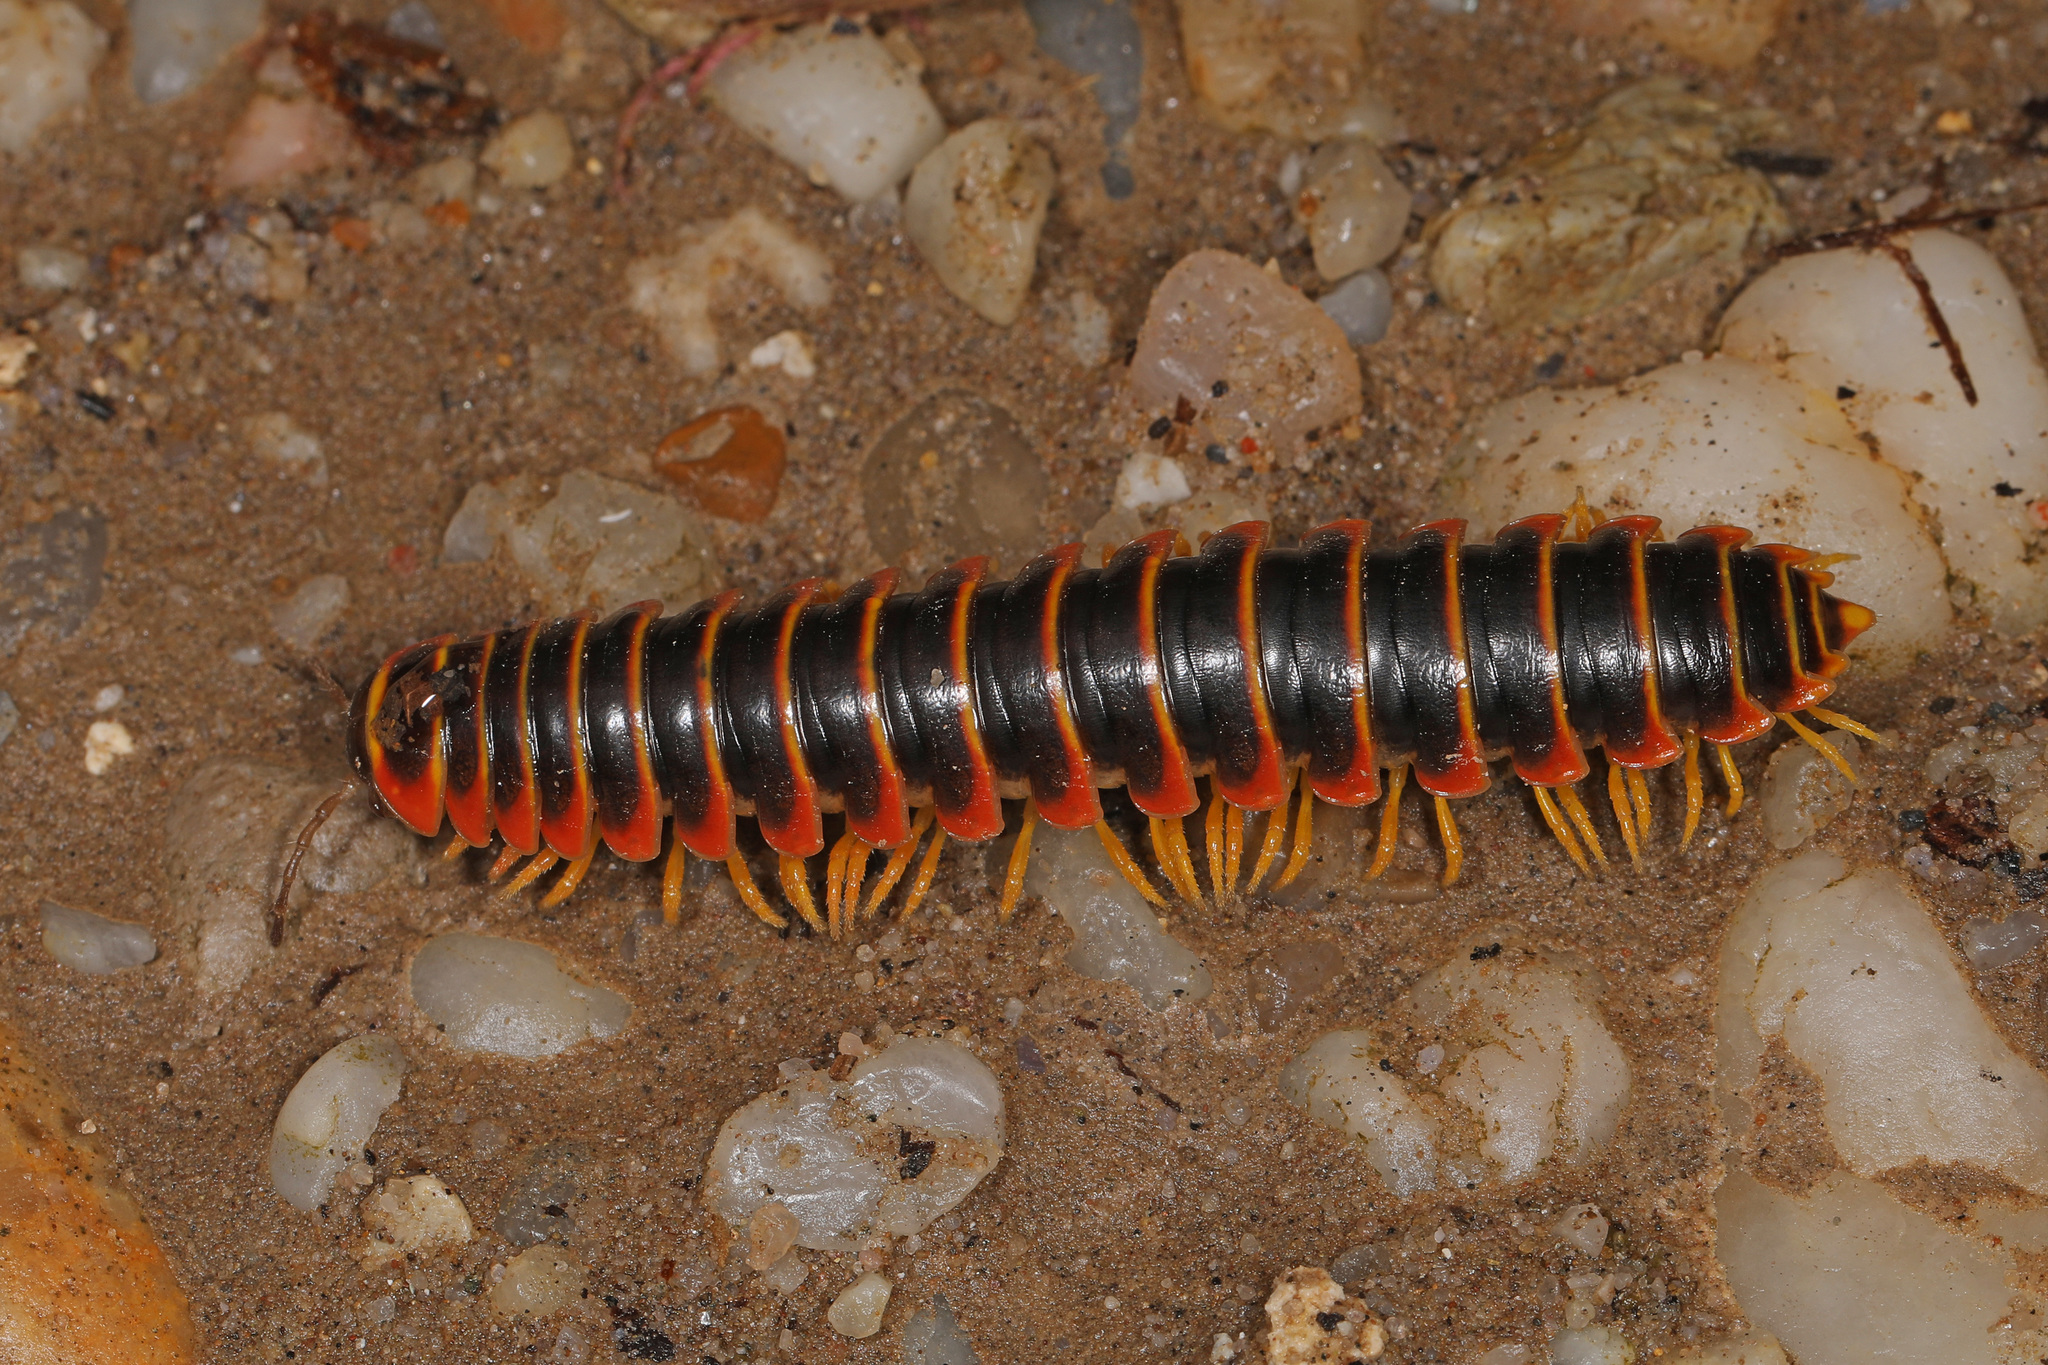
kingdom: Animalia
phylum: Arthropoda
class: Diplopoda
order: Polydesmida
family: Xystodesmidae
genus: Apheloria
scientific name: Apheloria virginiensis
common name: Black-and-gold flat millipede
